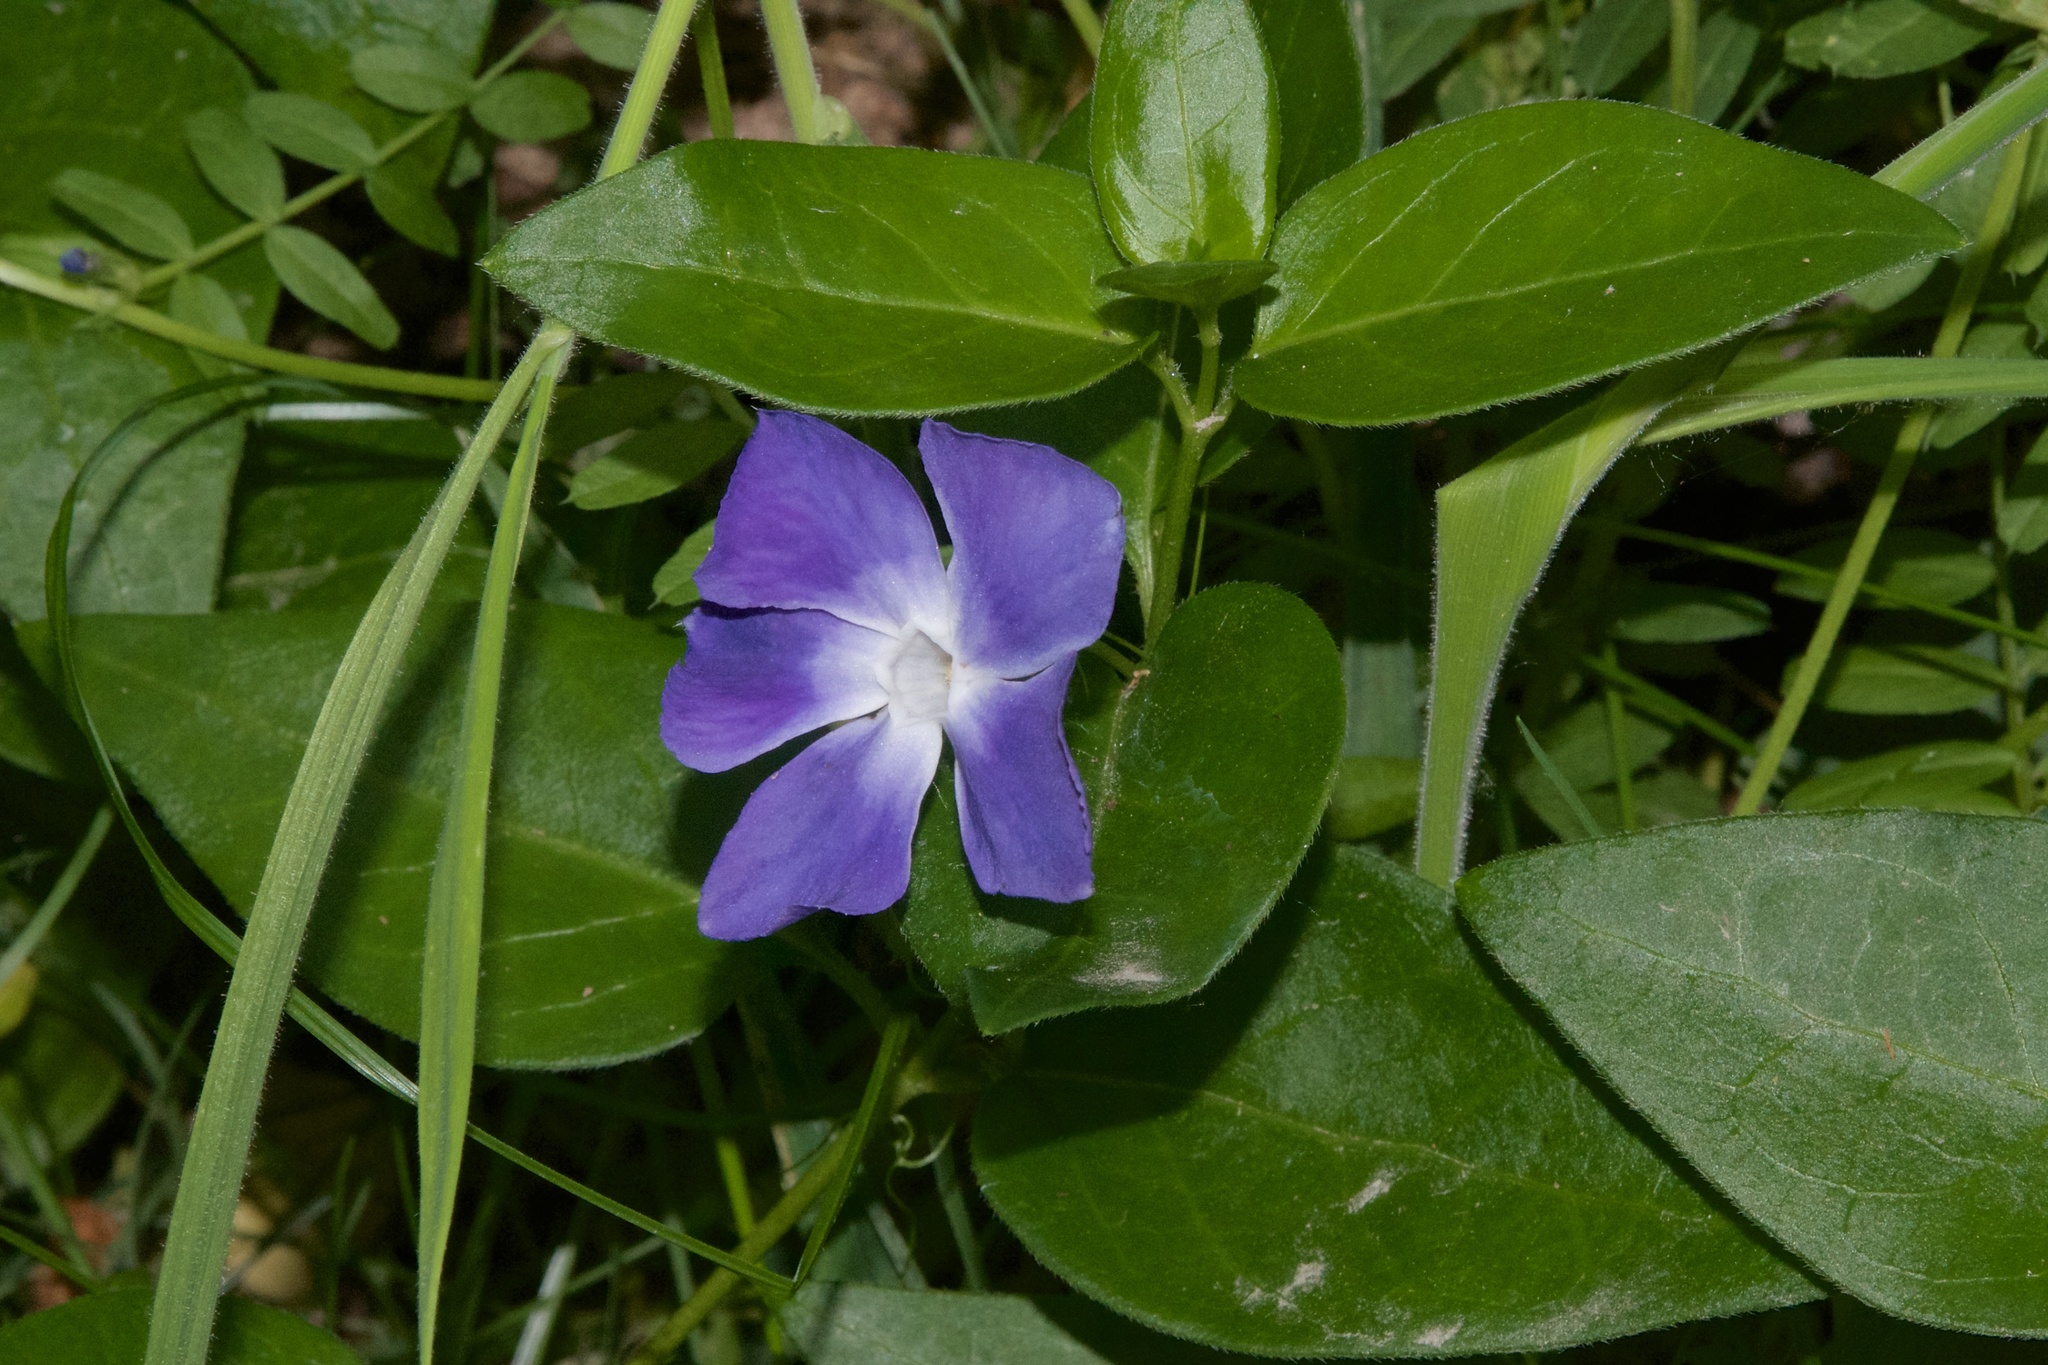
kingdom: Plantae
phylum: Tracheophyta
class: Magnoliopsida
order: Gentianales
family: Apocynaceae
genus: Vinca
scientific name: Vinca major
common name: Greater periwinkle
